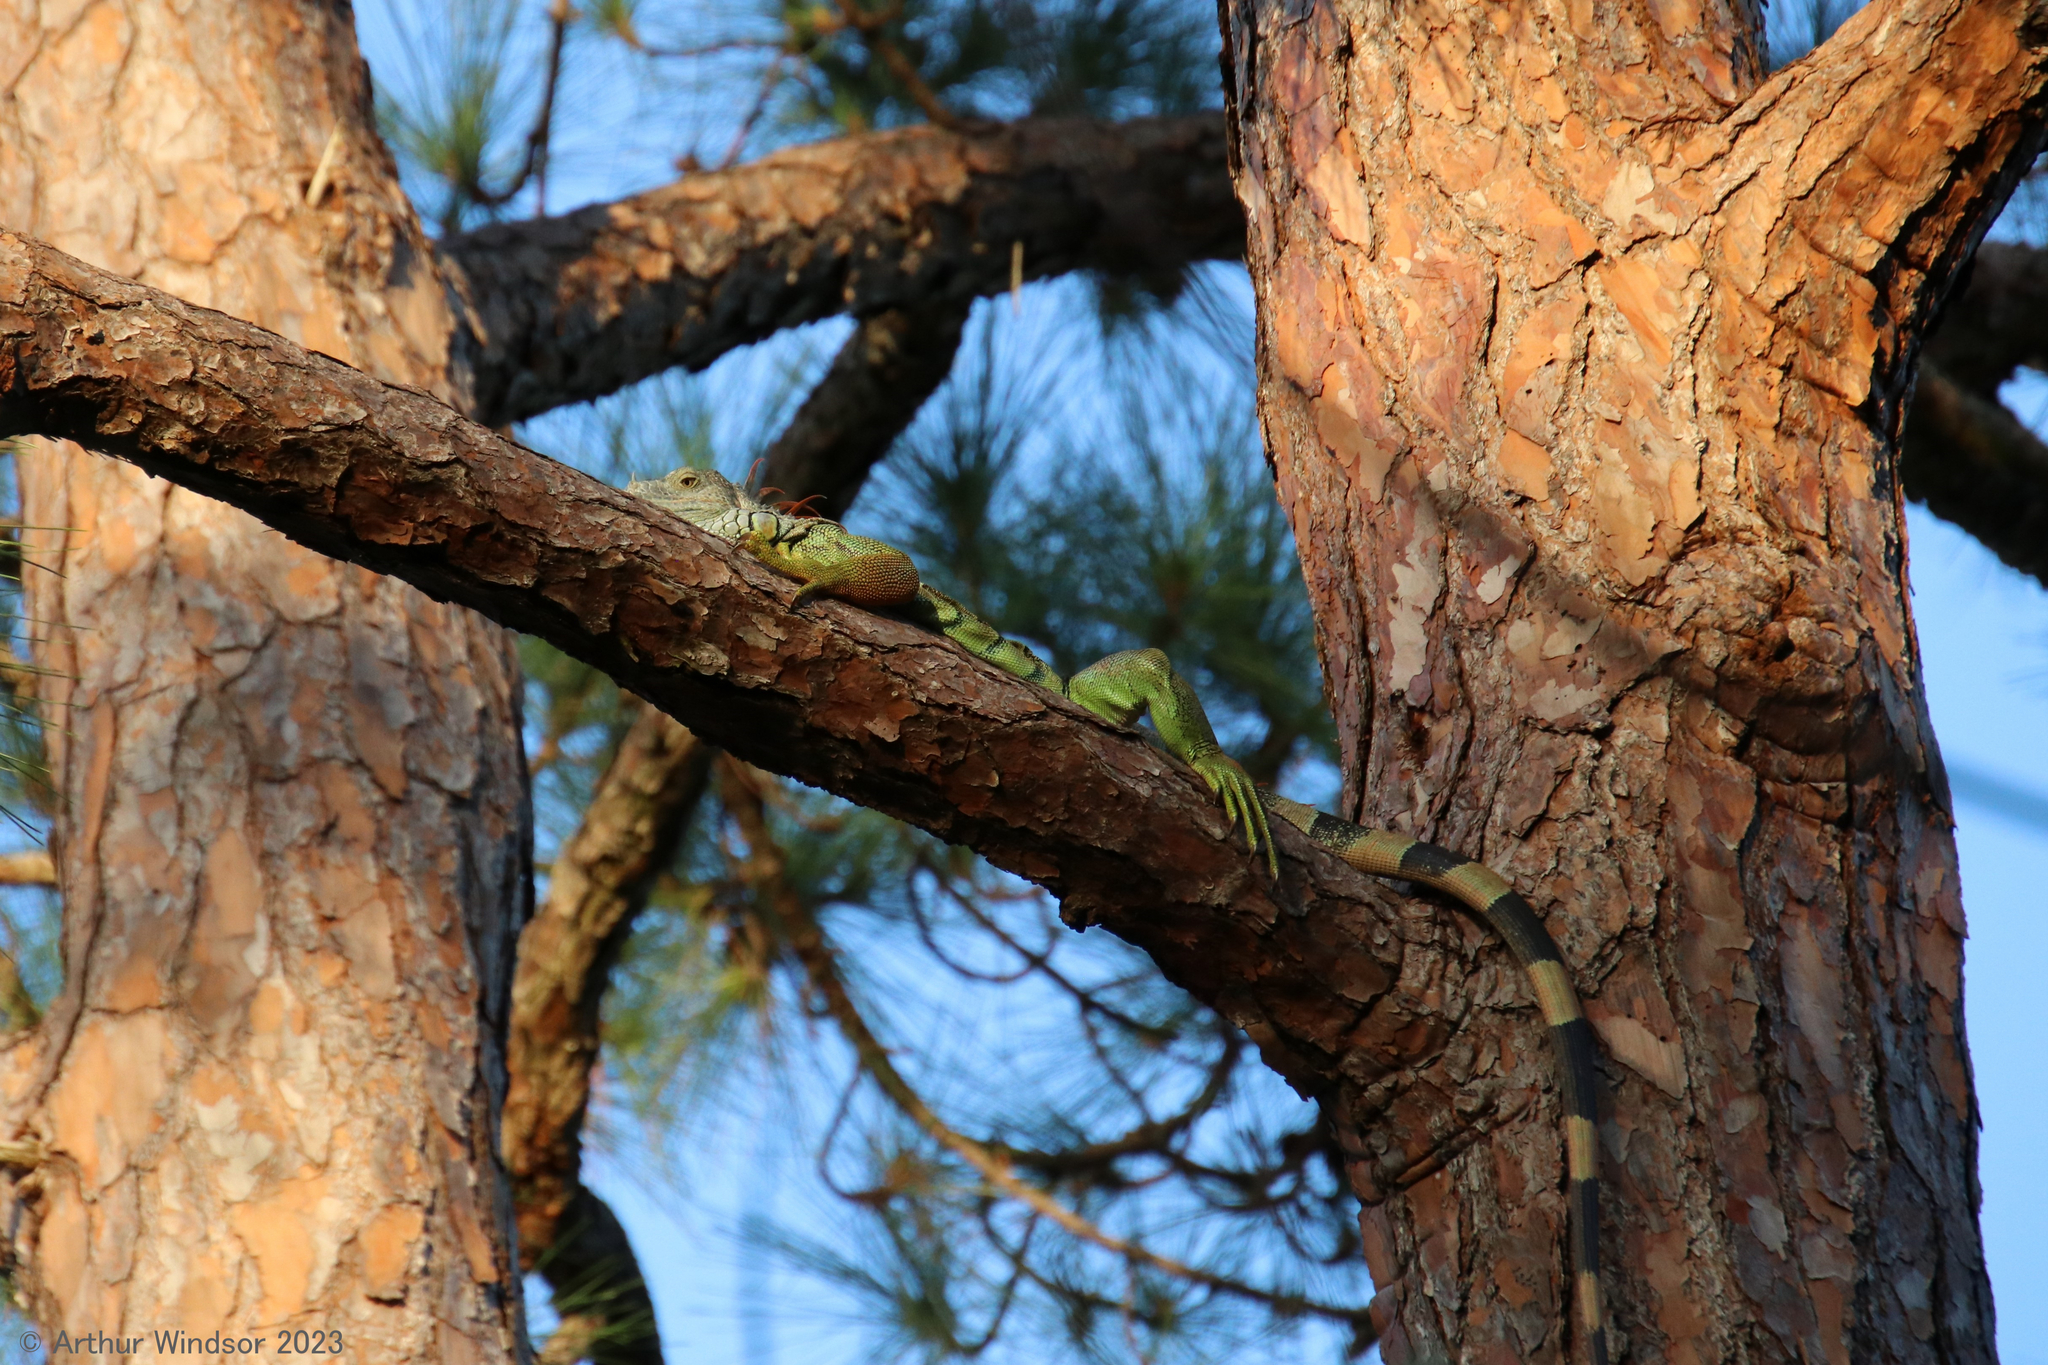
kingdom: Animalia
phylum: Chordata
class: Squamata
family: Iguanidae
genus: Iguana
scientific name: Iguana iguana
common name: Green iguana
